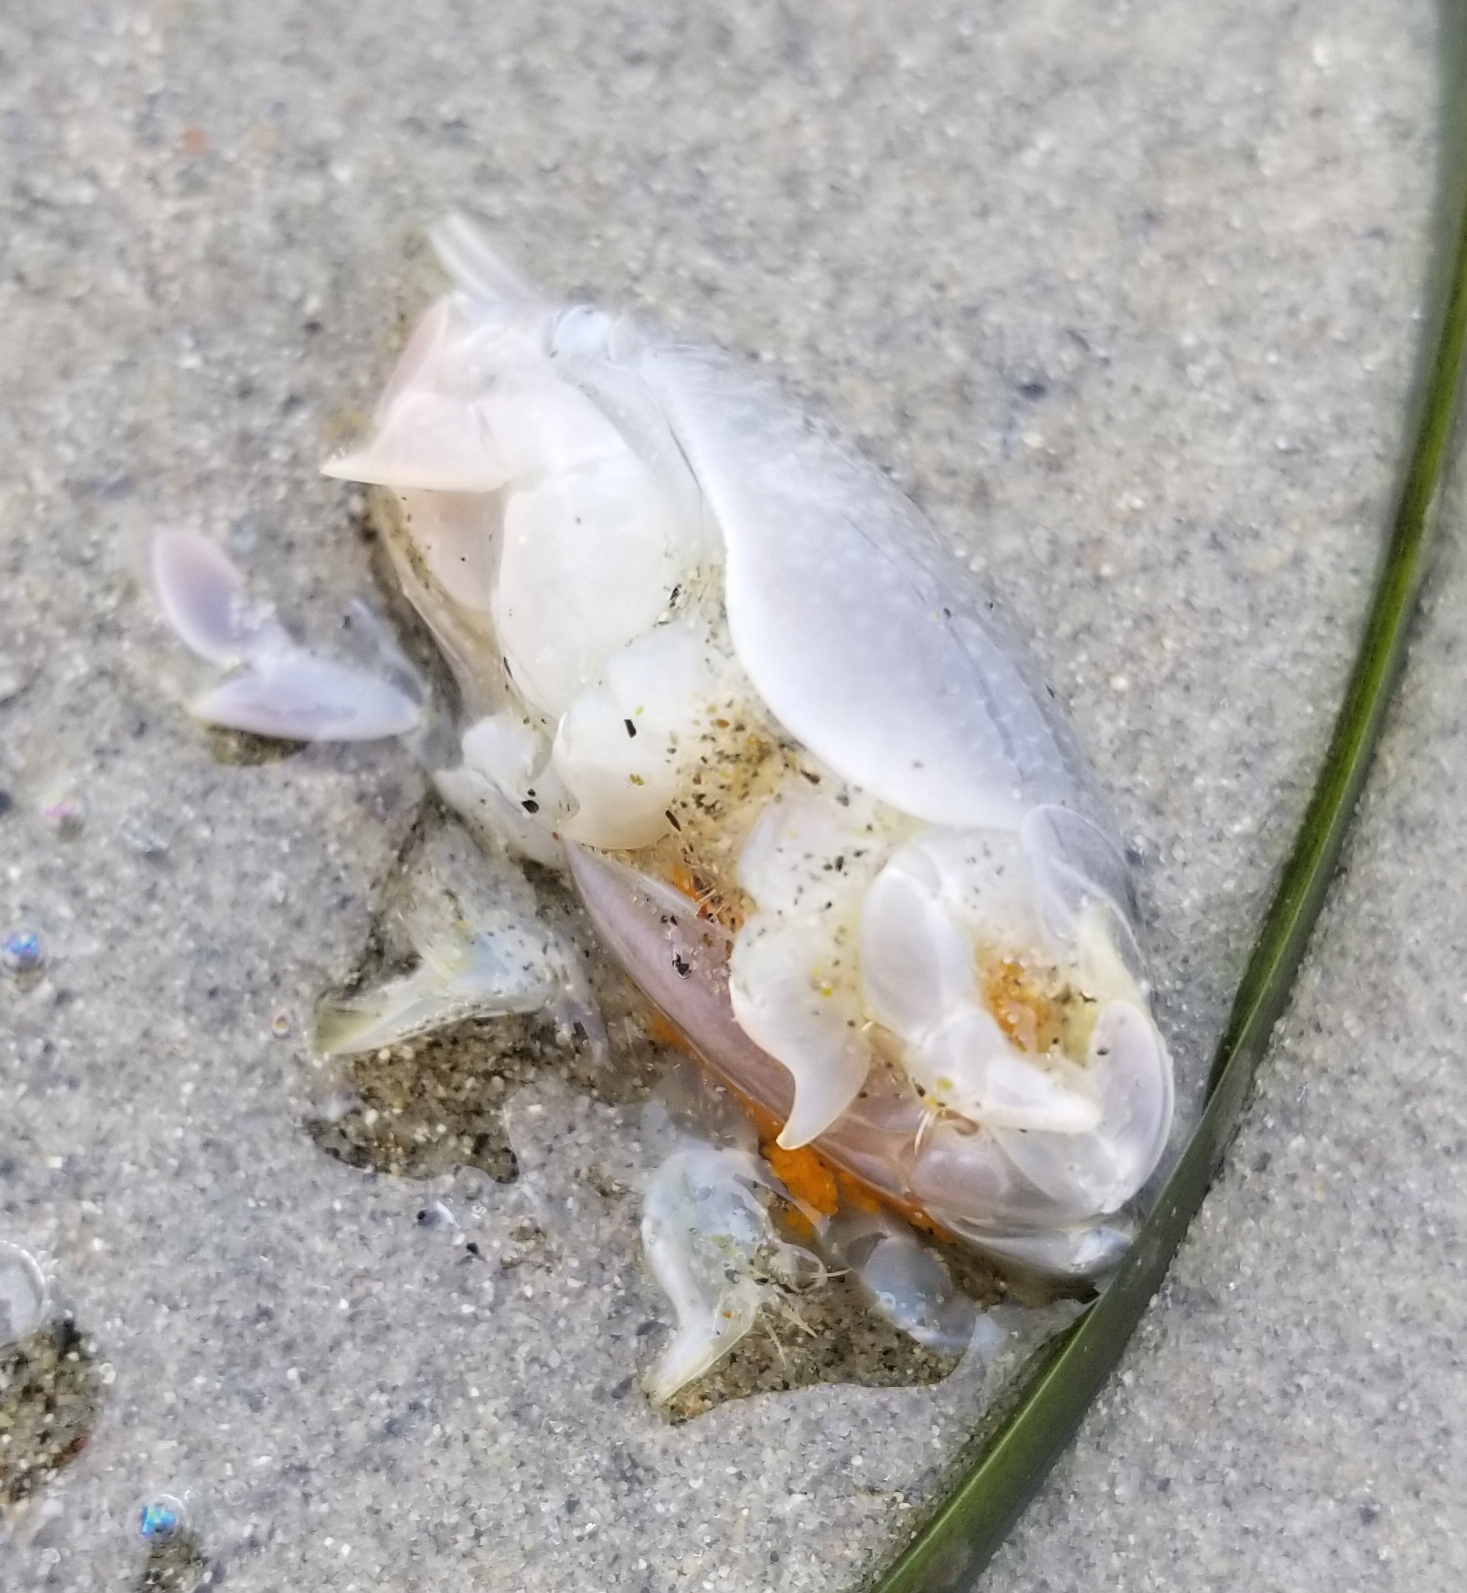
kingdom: Animalia
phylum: Arthropoda
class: Malacostraca
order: Decapoda
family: Hippidae
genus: Emerita
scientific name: Emerita analoga
